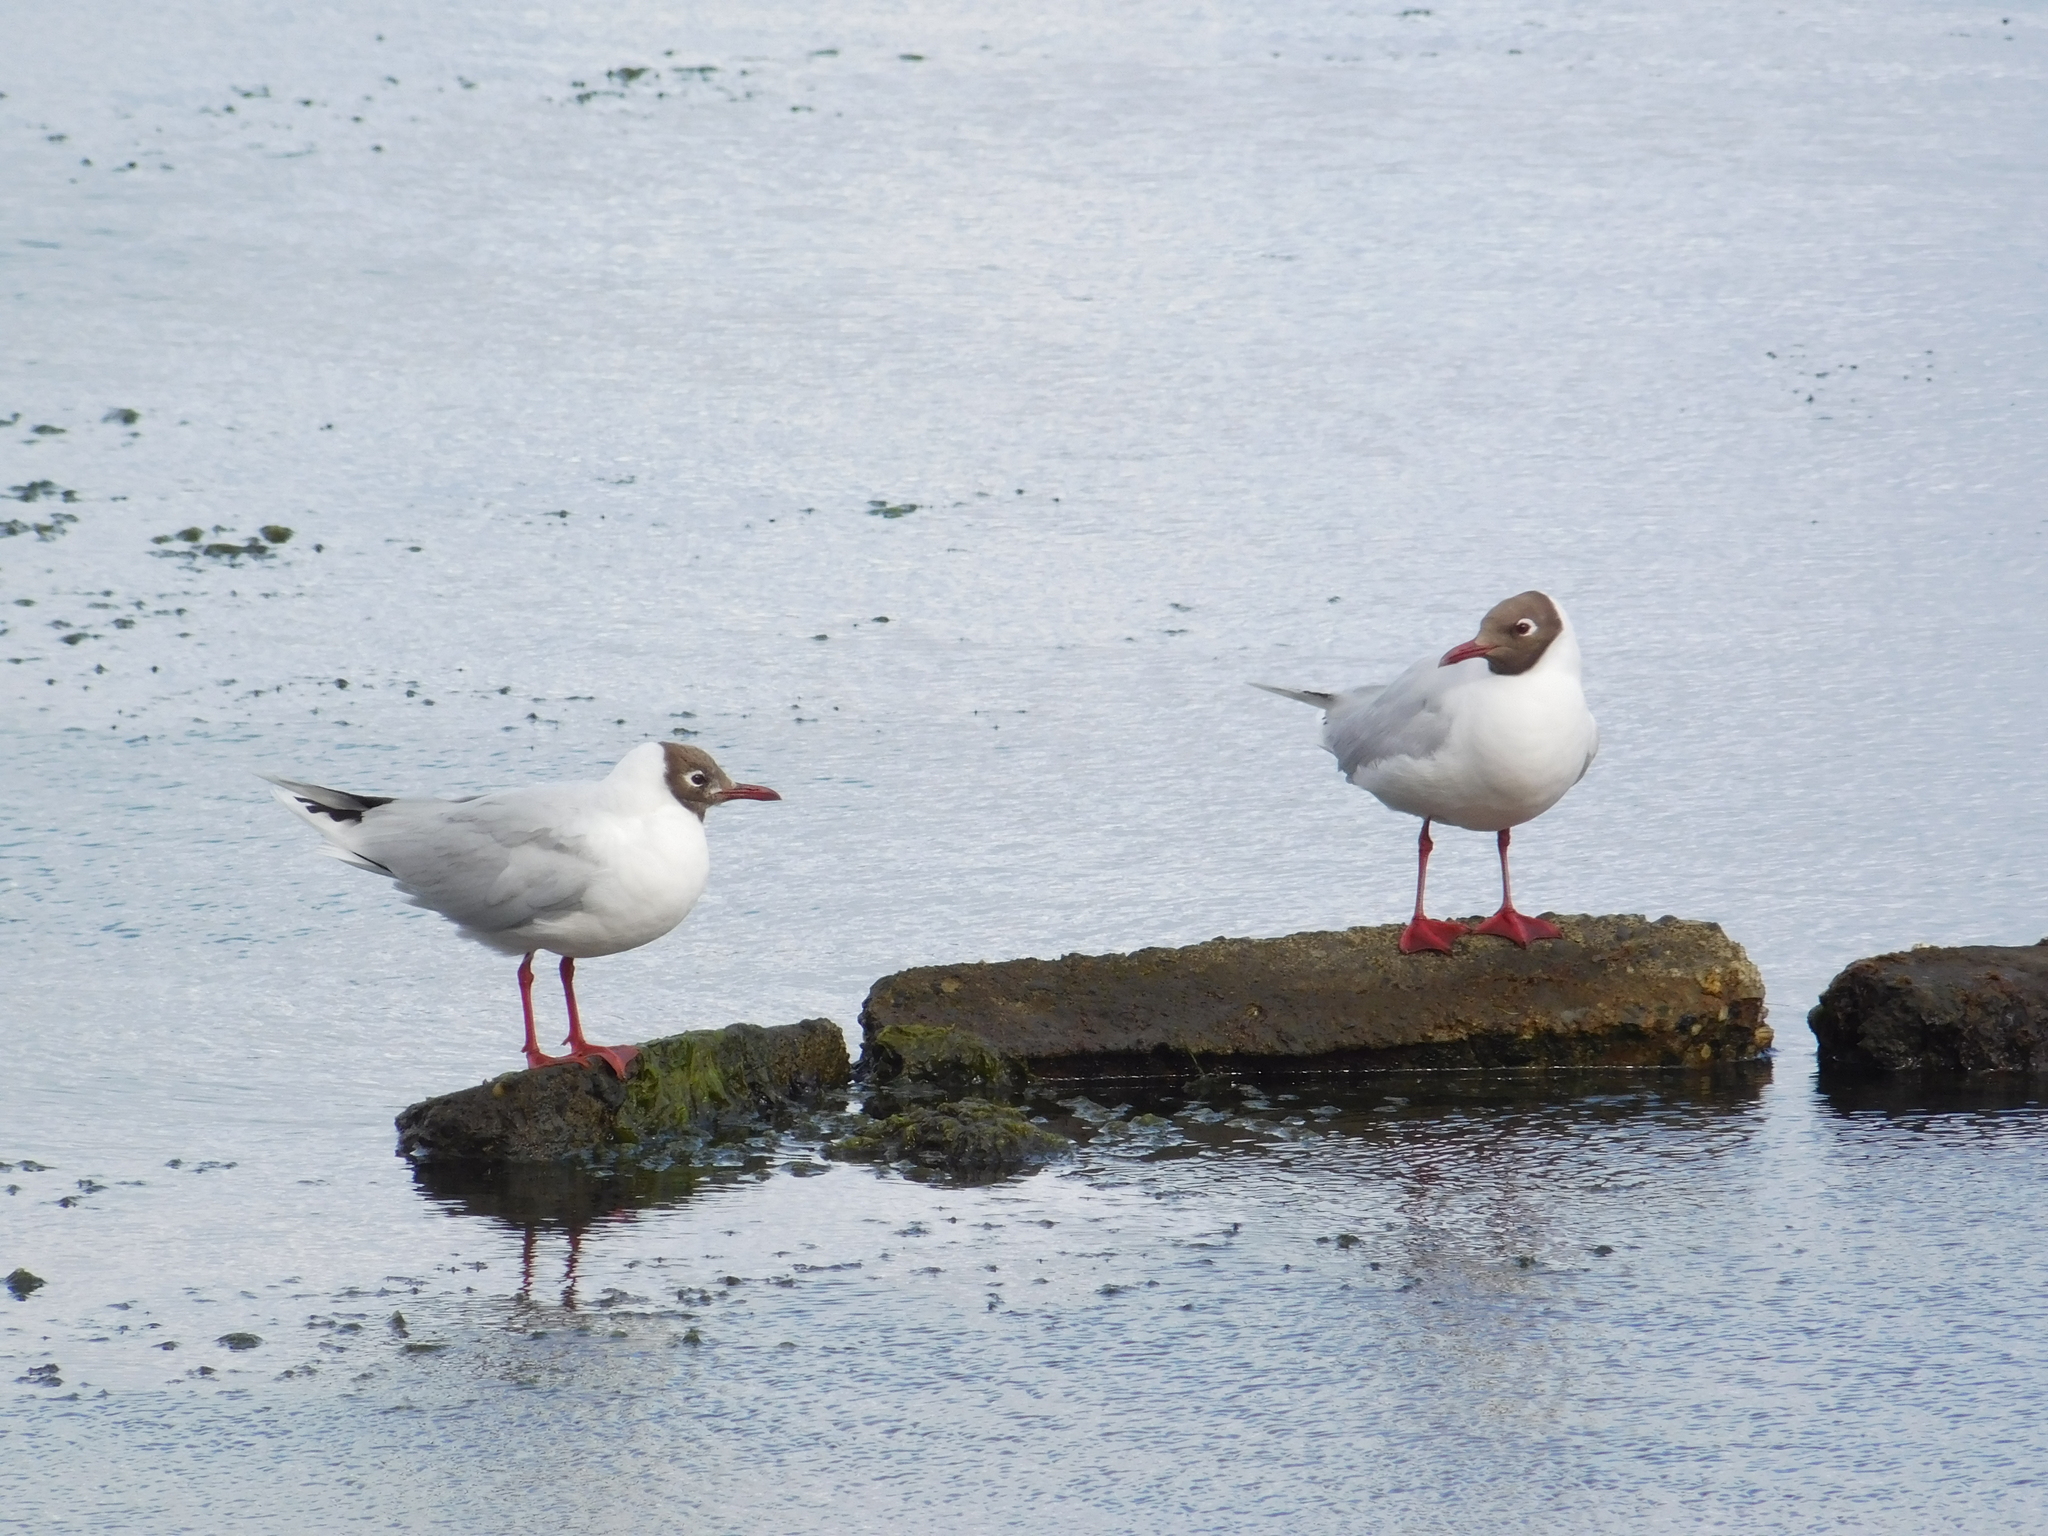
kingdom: Animalia
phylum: Chordata
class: Aves
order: Charadriiformes
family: Laridae
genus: Chroicocephalus
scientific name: Chroicocephalus maculipennis
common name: Brown-hooded gull
